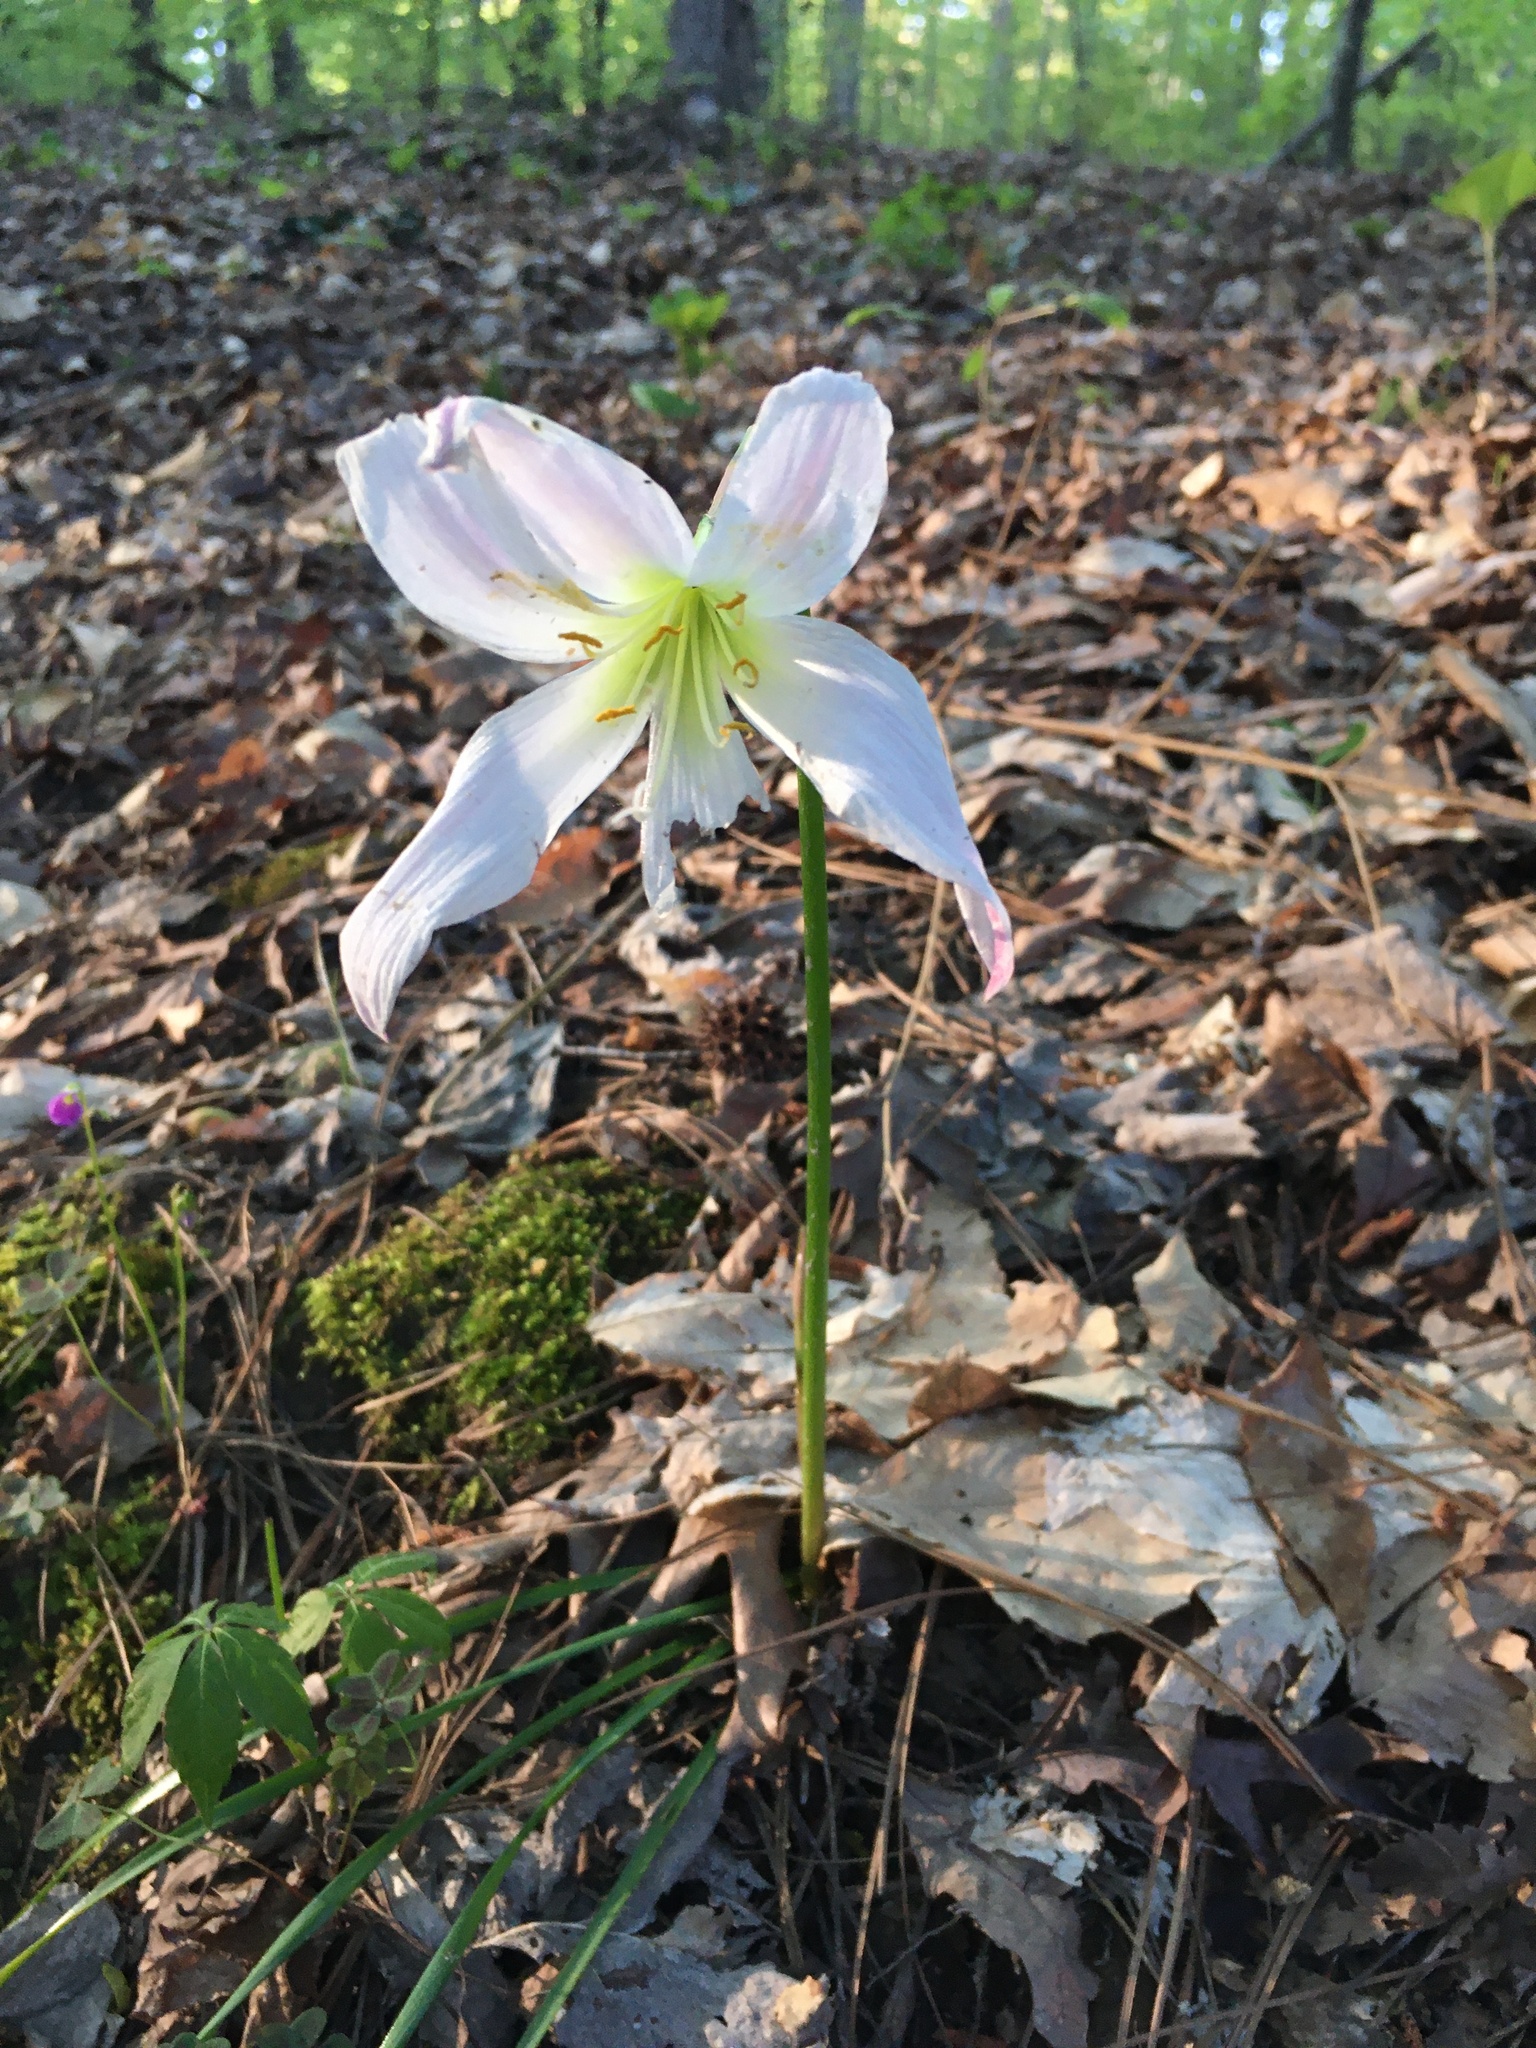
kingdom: Plantae
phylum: Tracheophyta
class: Liliopsida
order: Asparagales
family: Amaryllidaceae
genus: Zephyranthes
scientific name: Zephyranthes atamasco
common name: Atamasco lily
